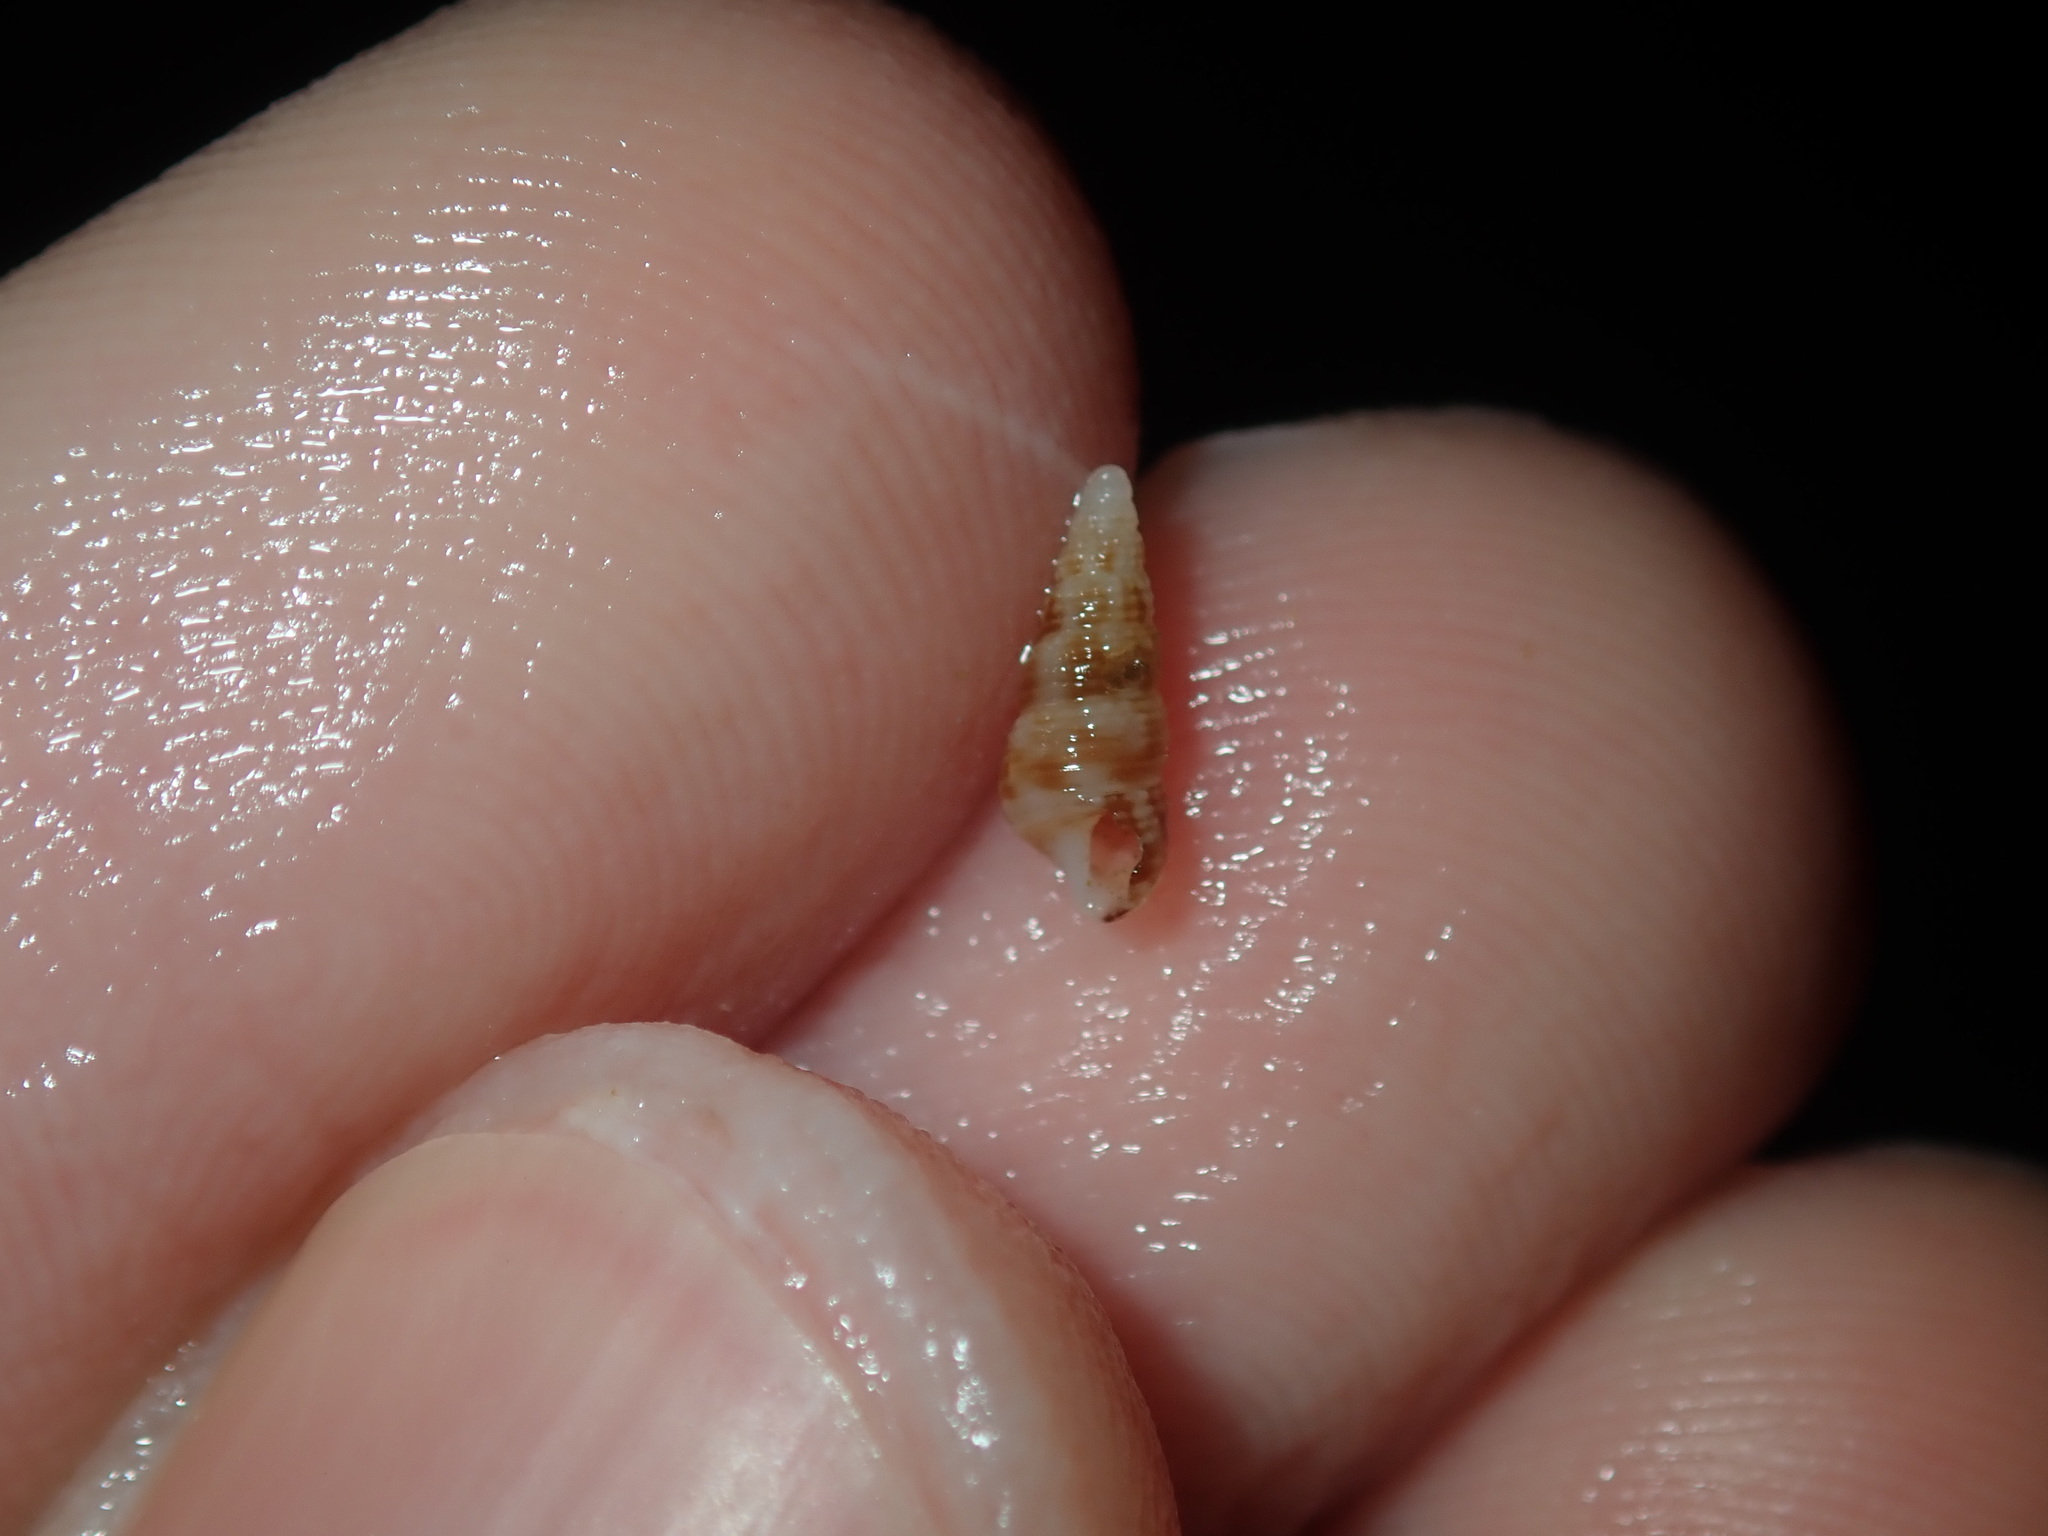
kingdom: Animalia
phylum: Mollusca
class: Gastropoda
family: Cerithiidae
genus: Cacozeliana
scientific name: Cacozeliana granarium
